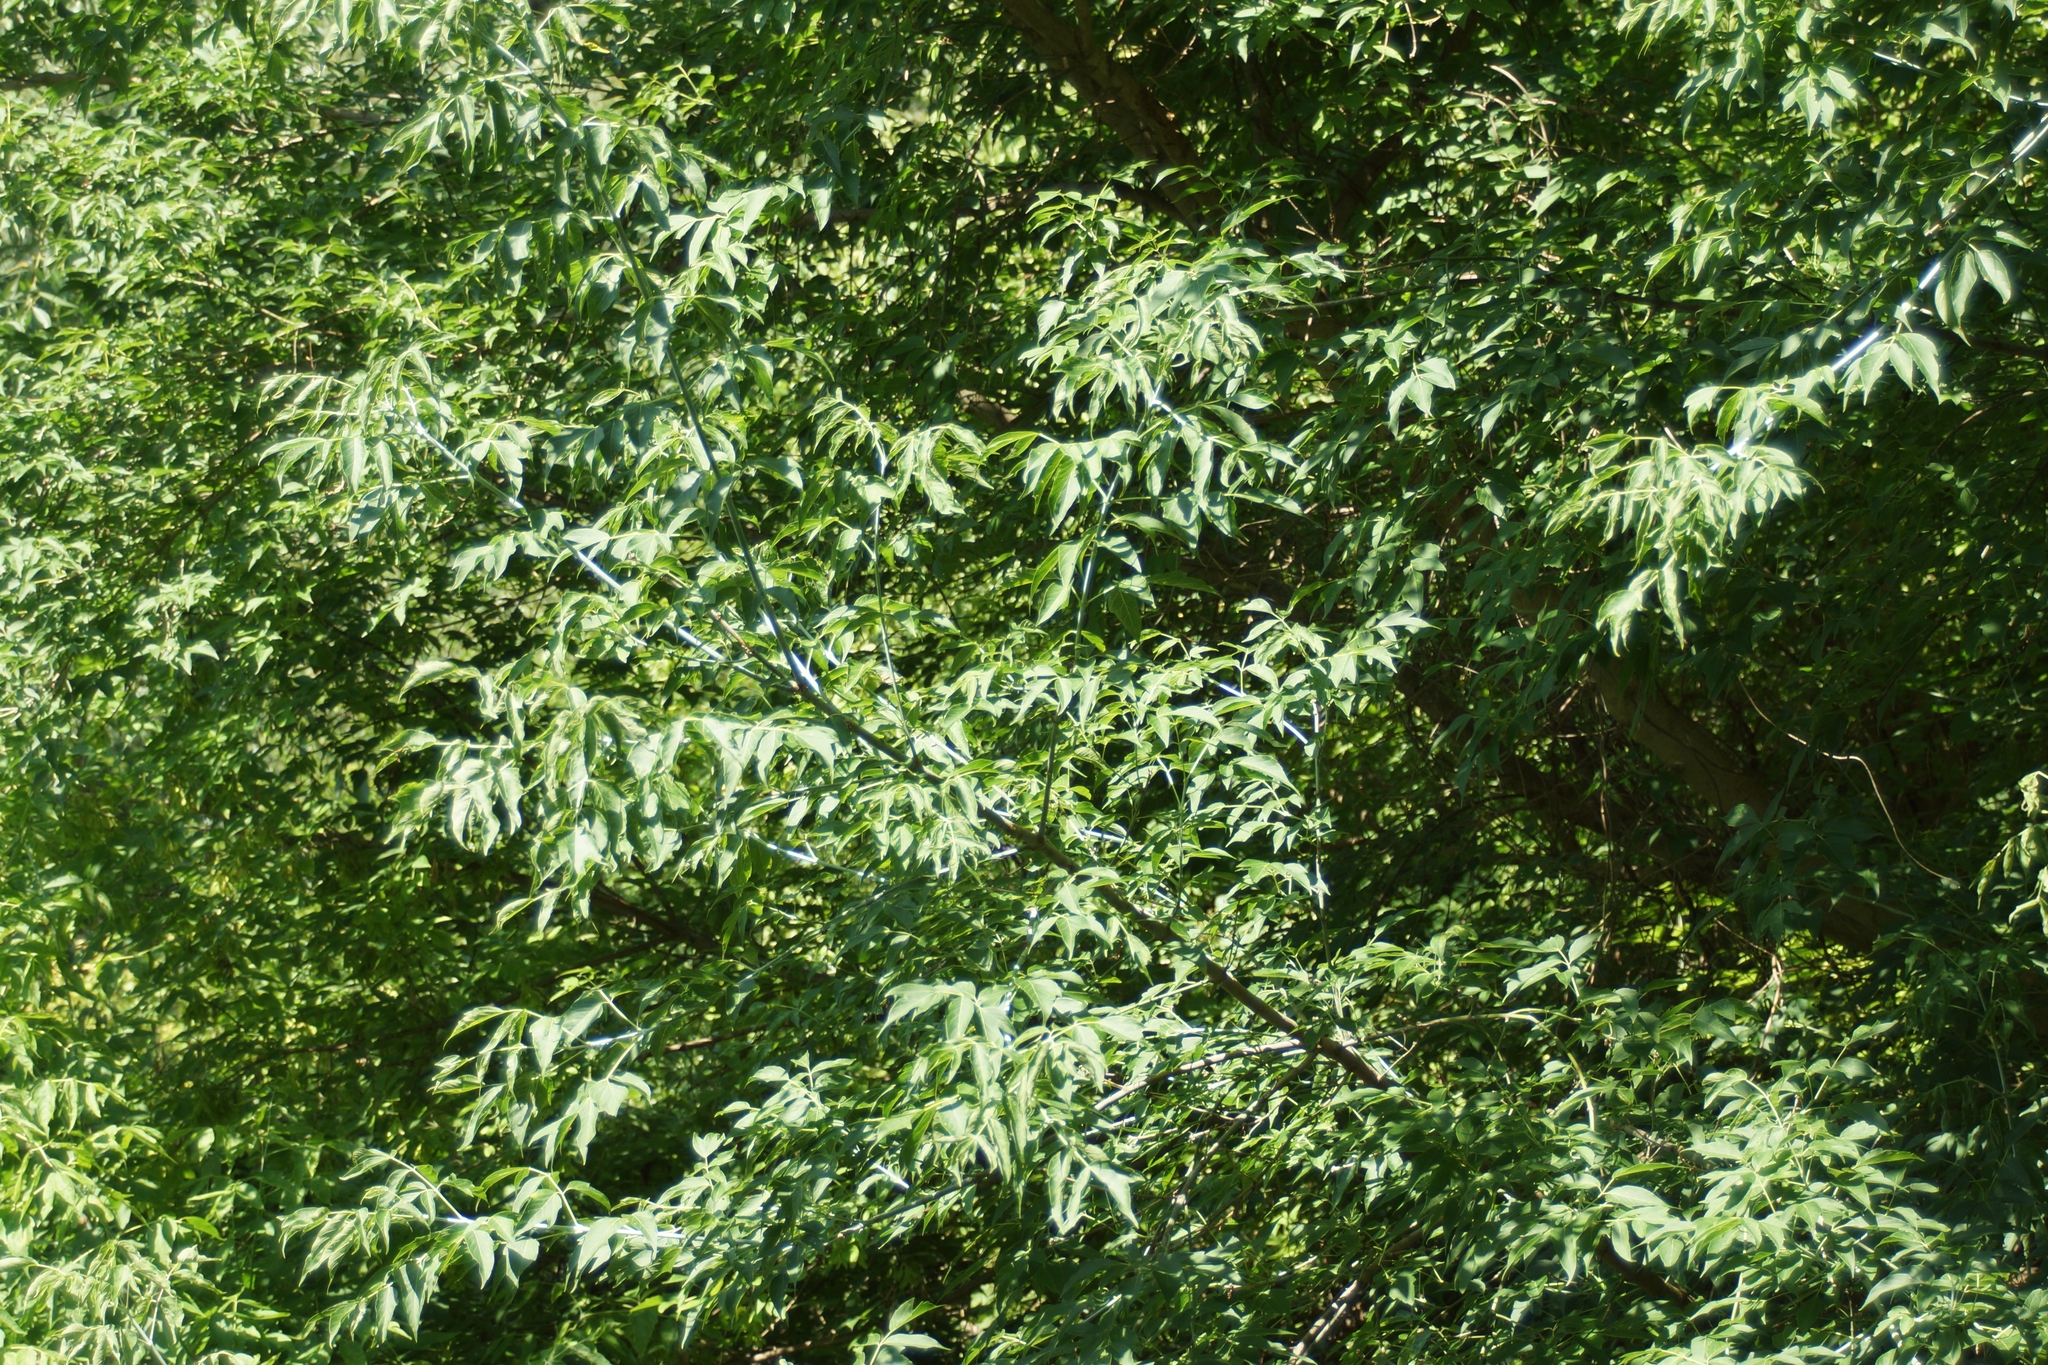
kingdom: Plantae
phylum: Tracheophyta
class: Magnoliopsida
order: Sapindales
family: Sapindaceae
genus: Acer
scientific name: Acer negundo
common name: Ashleaf maple
